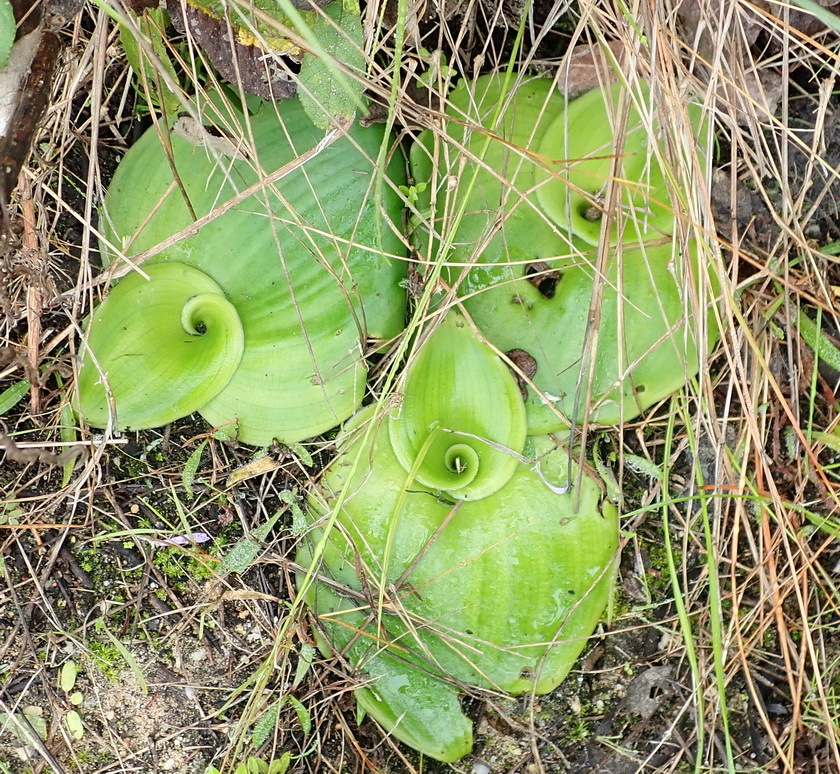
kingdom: Plantae
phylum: Tracheophyta
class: Liliopsida
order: Asparagales
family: Orchidaceae
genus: Satyrium
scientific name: Satyrium princeps
